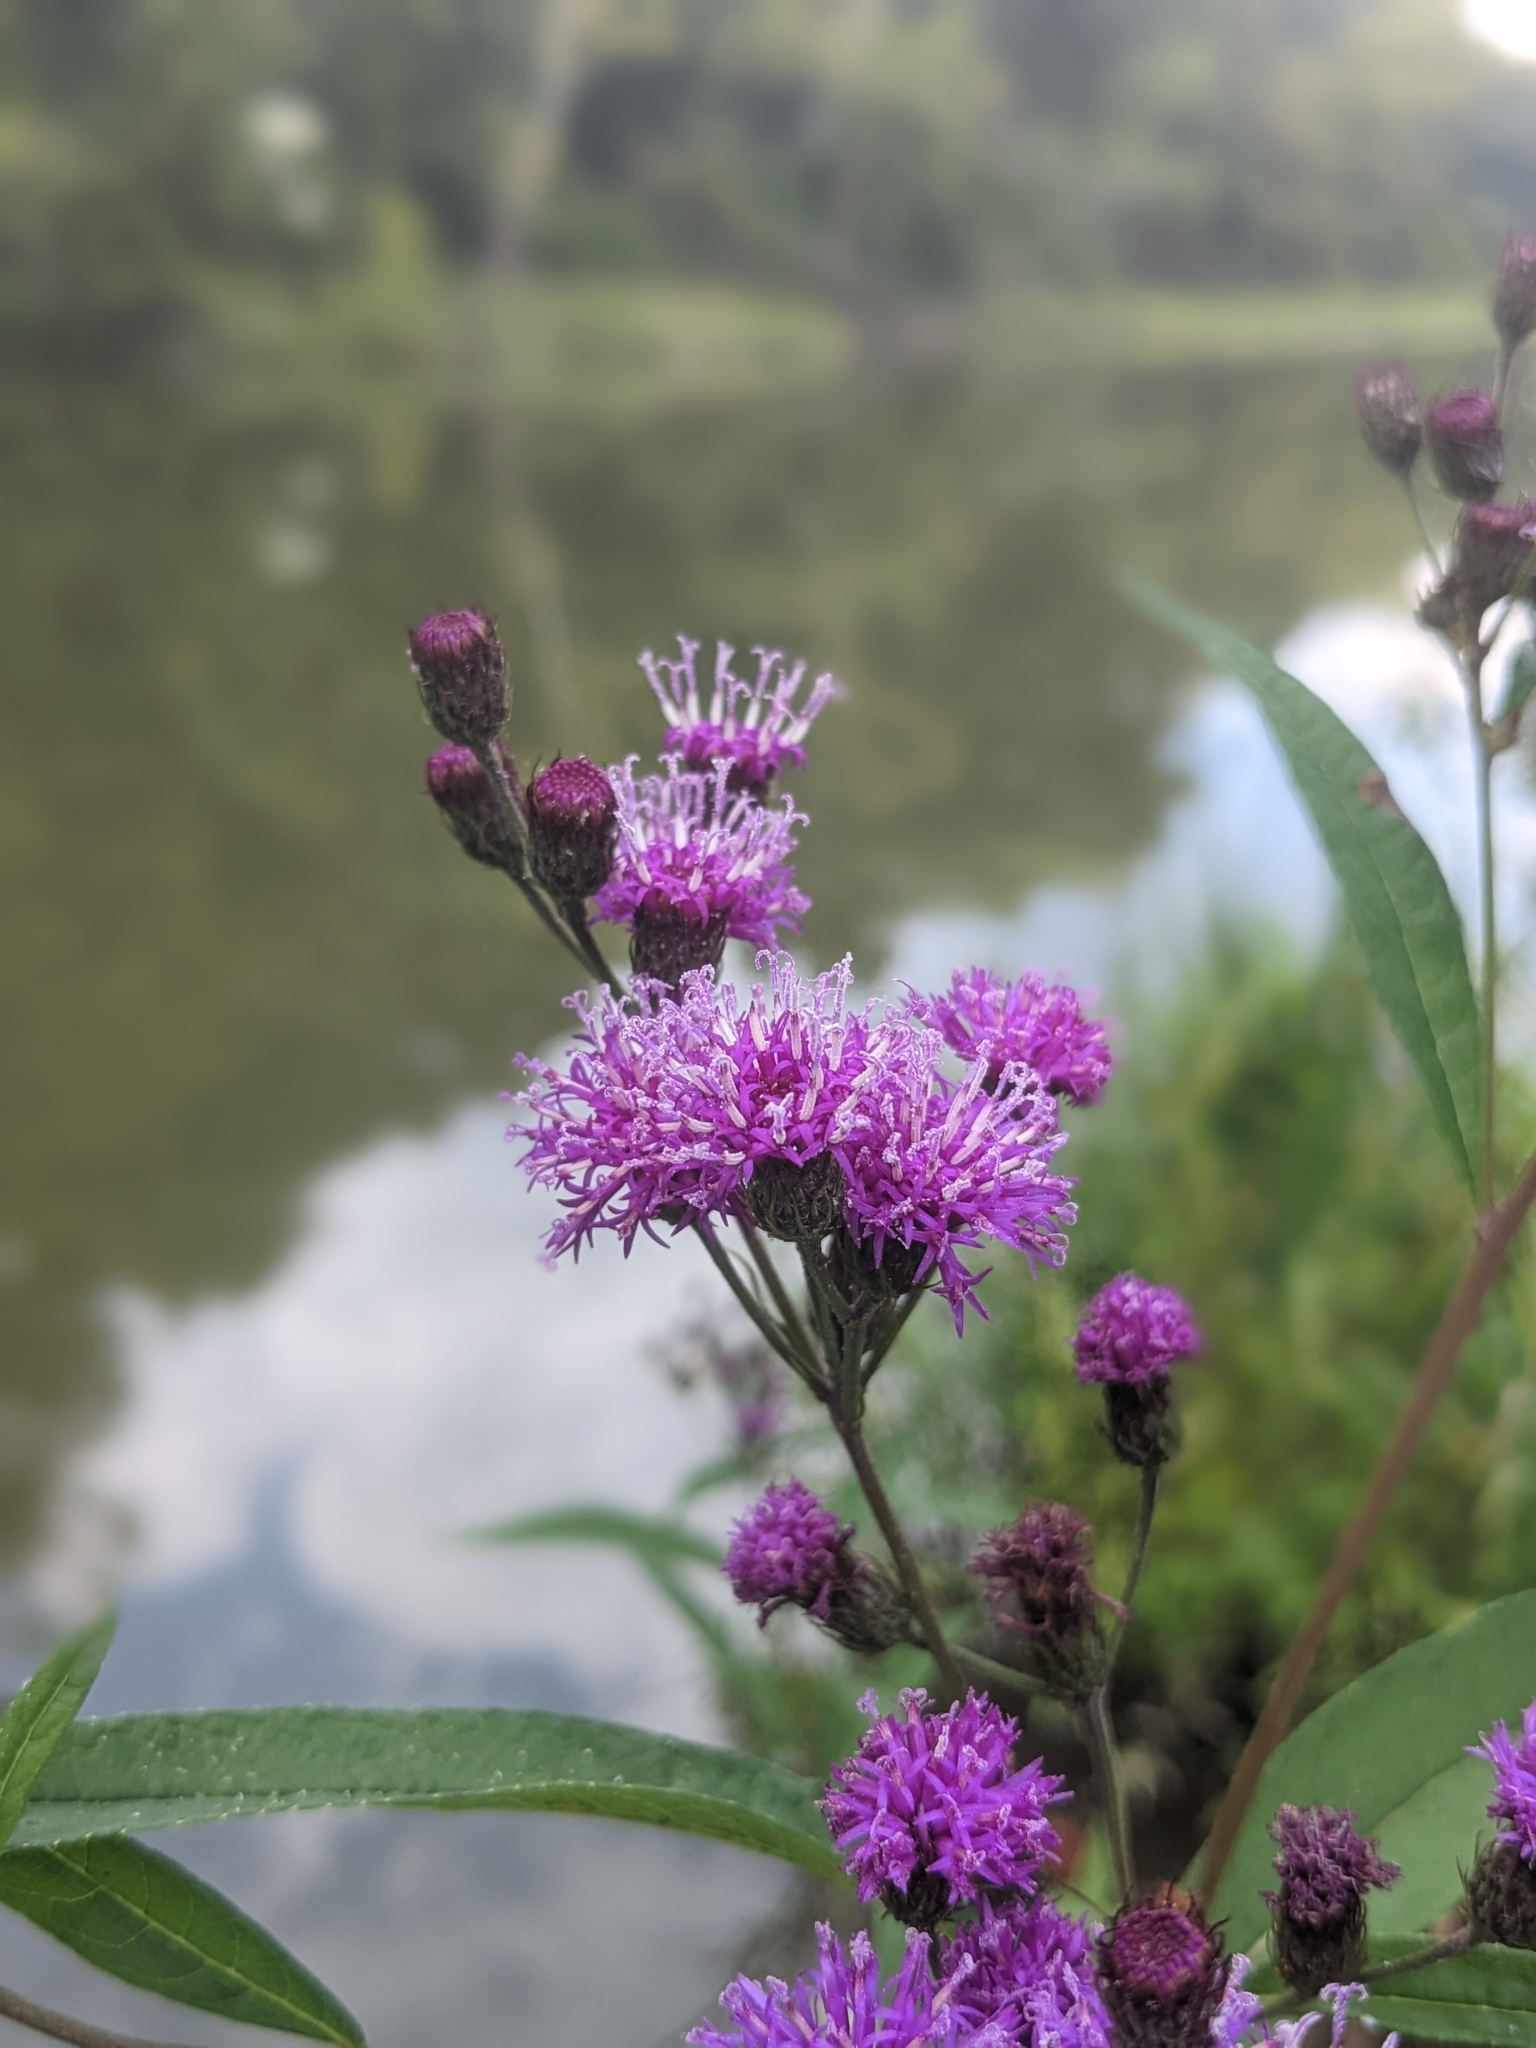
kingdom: Plantae
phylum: Tracheophyta
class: Magnoliopsida
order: Asterales
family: Asteraceae
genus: Vernonia
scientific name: Vernonia noveboracensis
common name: New york ironweed
